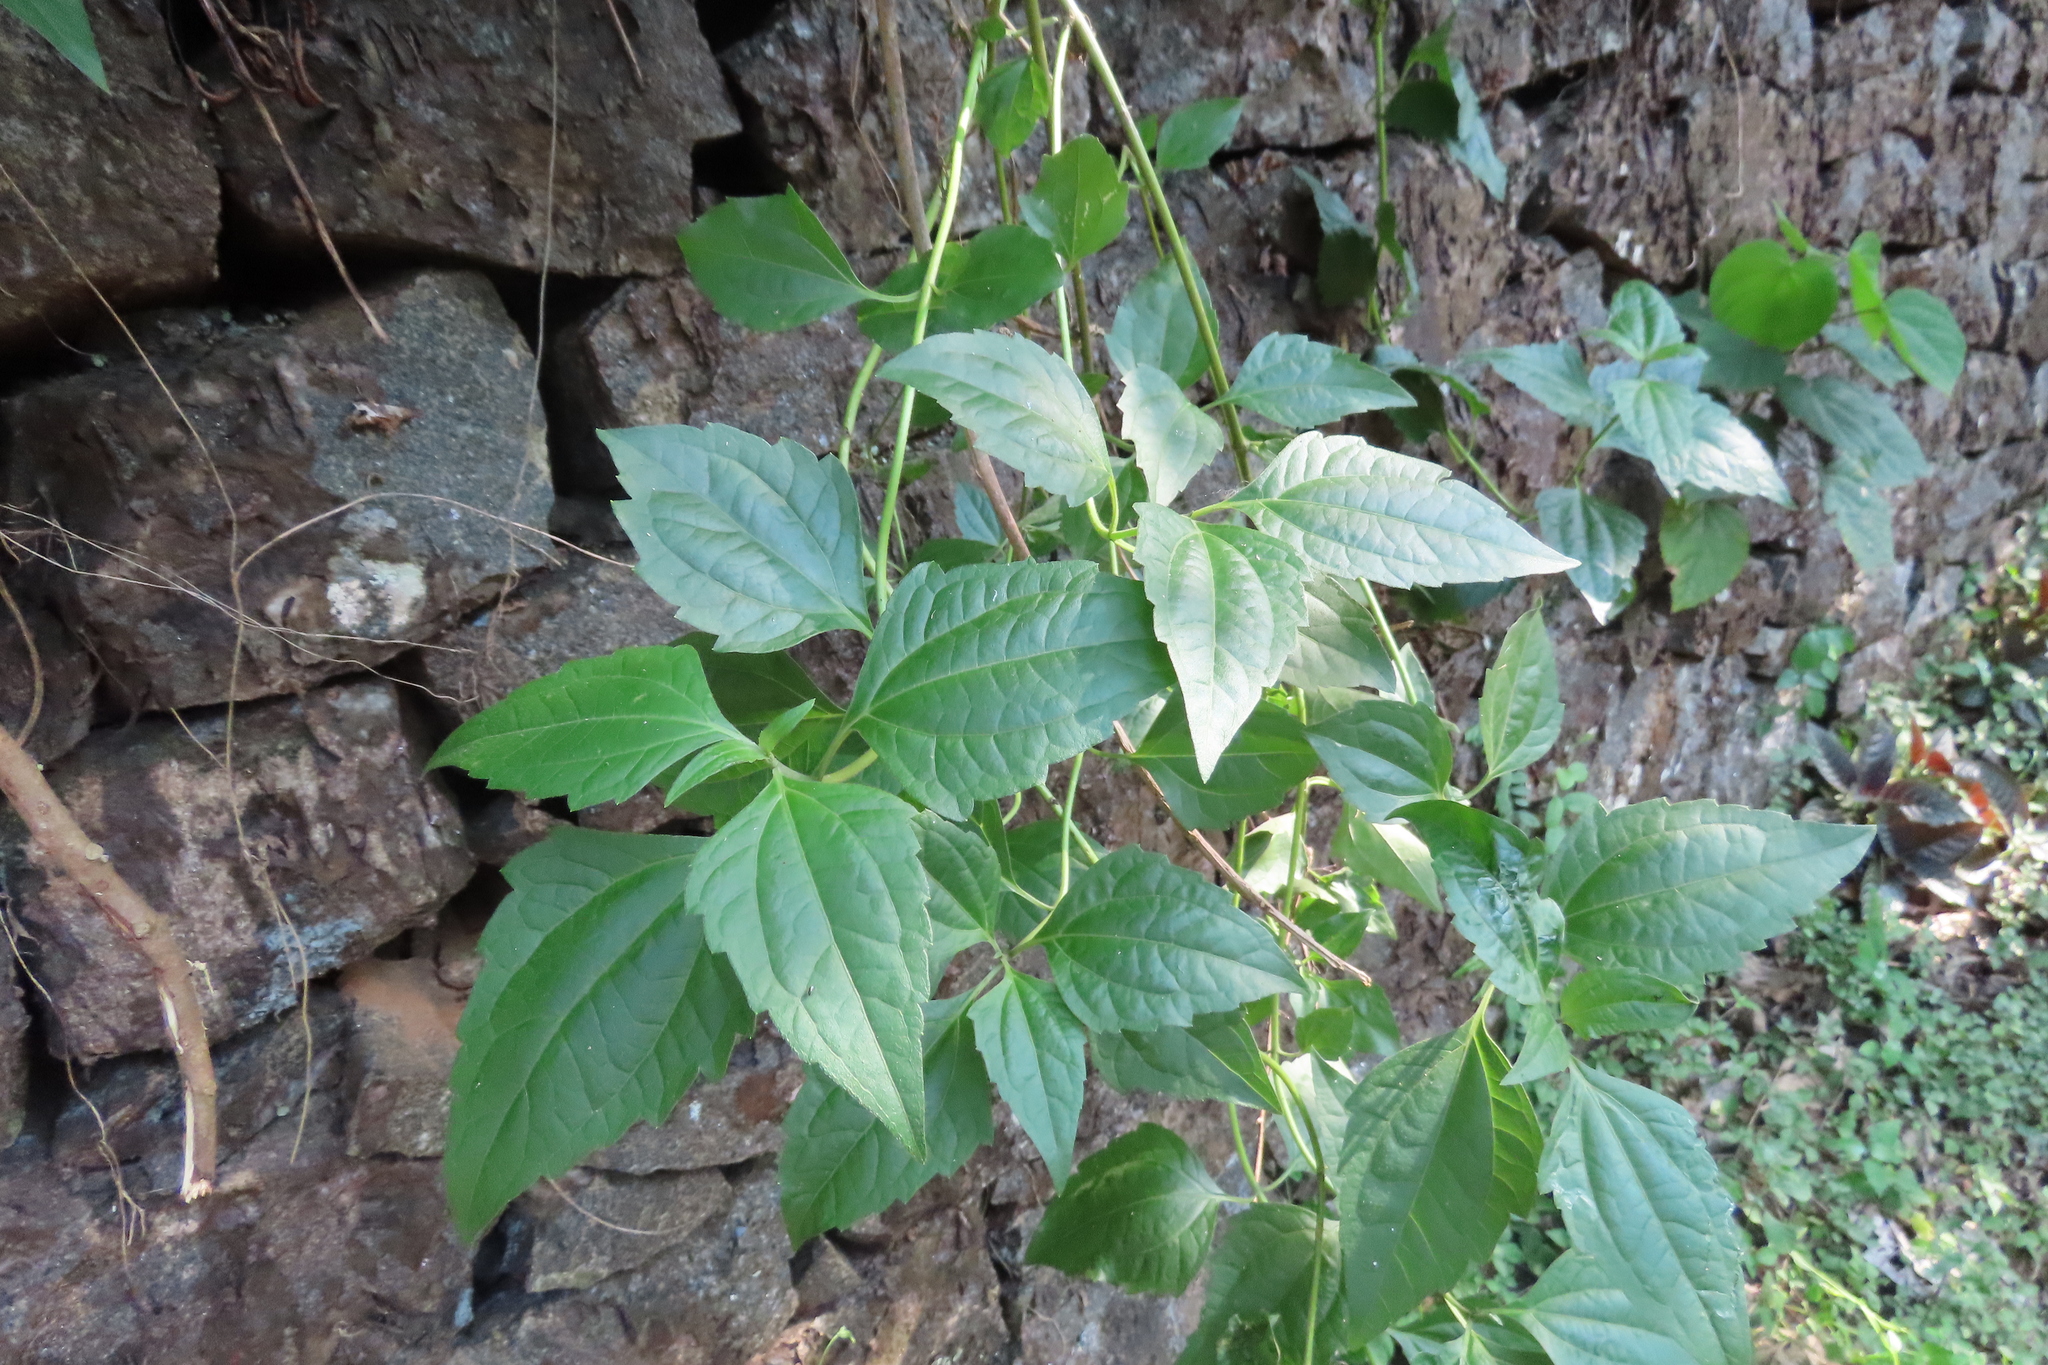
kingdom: Plantae
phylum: Tracheophyta
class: Magnoliopsida
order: Asterales
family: Asteraceae
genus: Chromolaena
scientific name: Chromolaena odorata
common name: Siamweed
